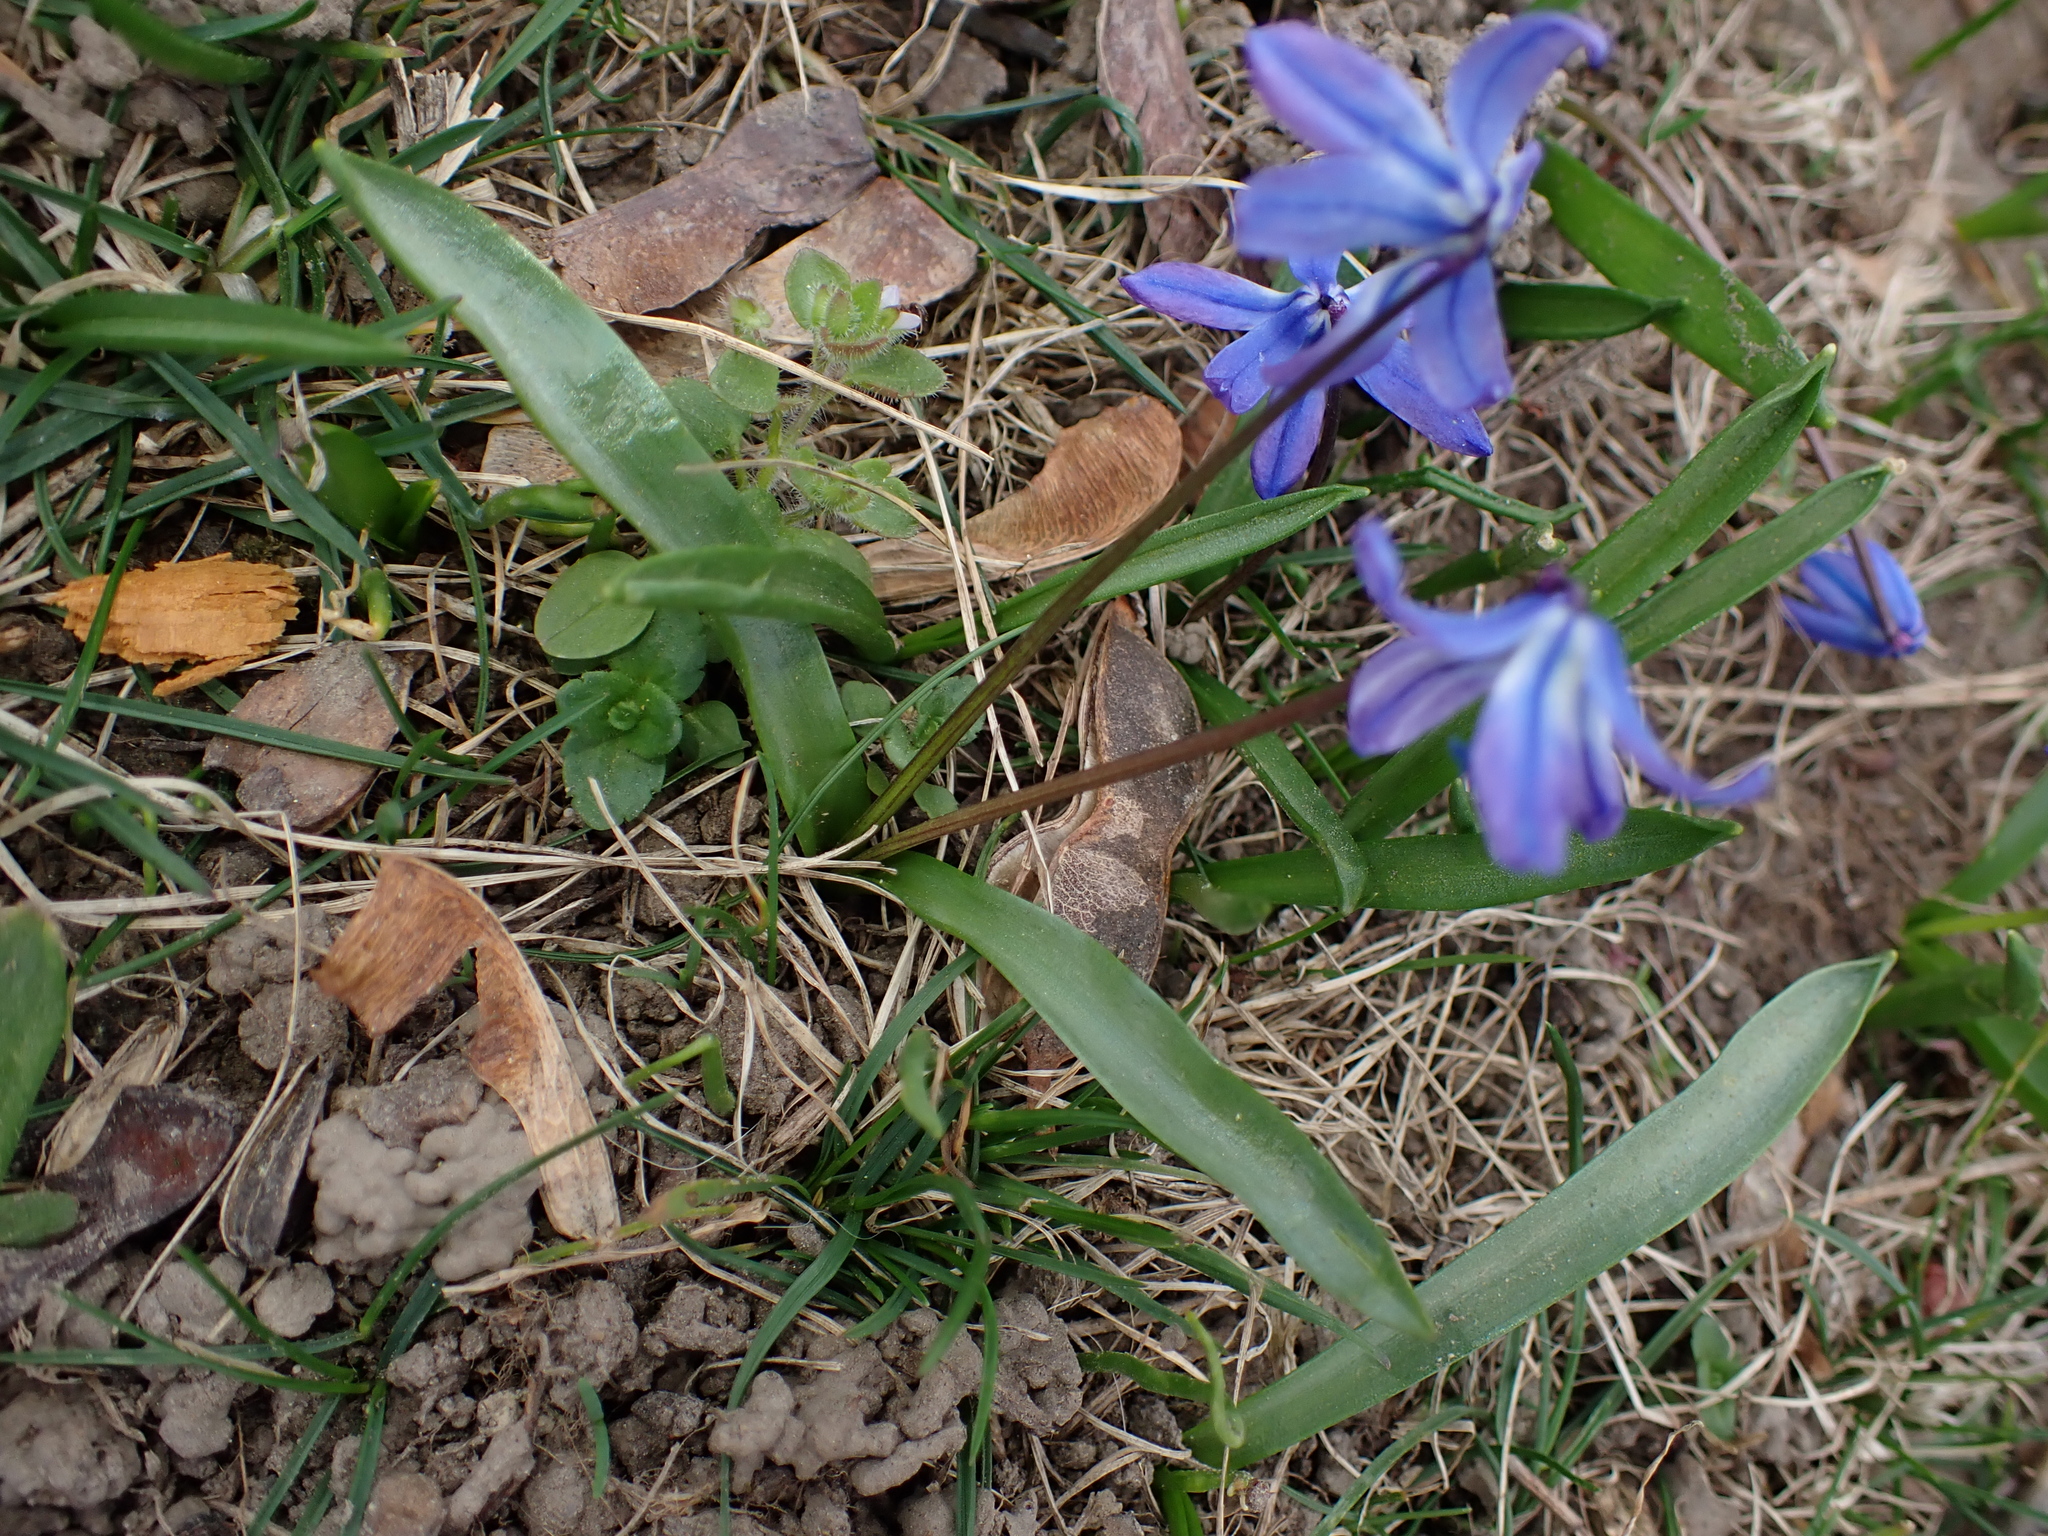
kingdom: Plantae
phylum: Tracheophyta
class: Liliopsida
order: Asparagales
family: Asparagaceae
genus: Scilla
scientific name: Scilla siberica
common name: Siberian squill
